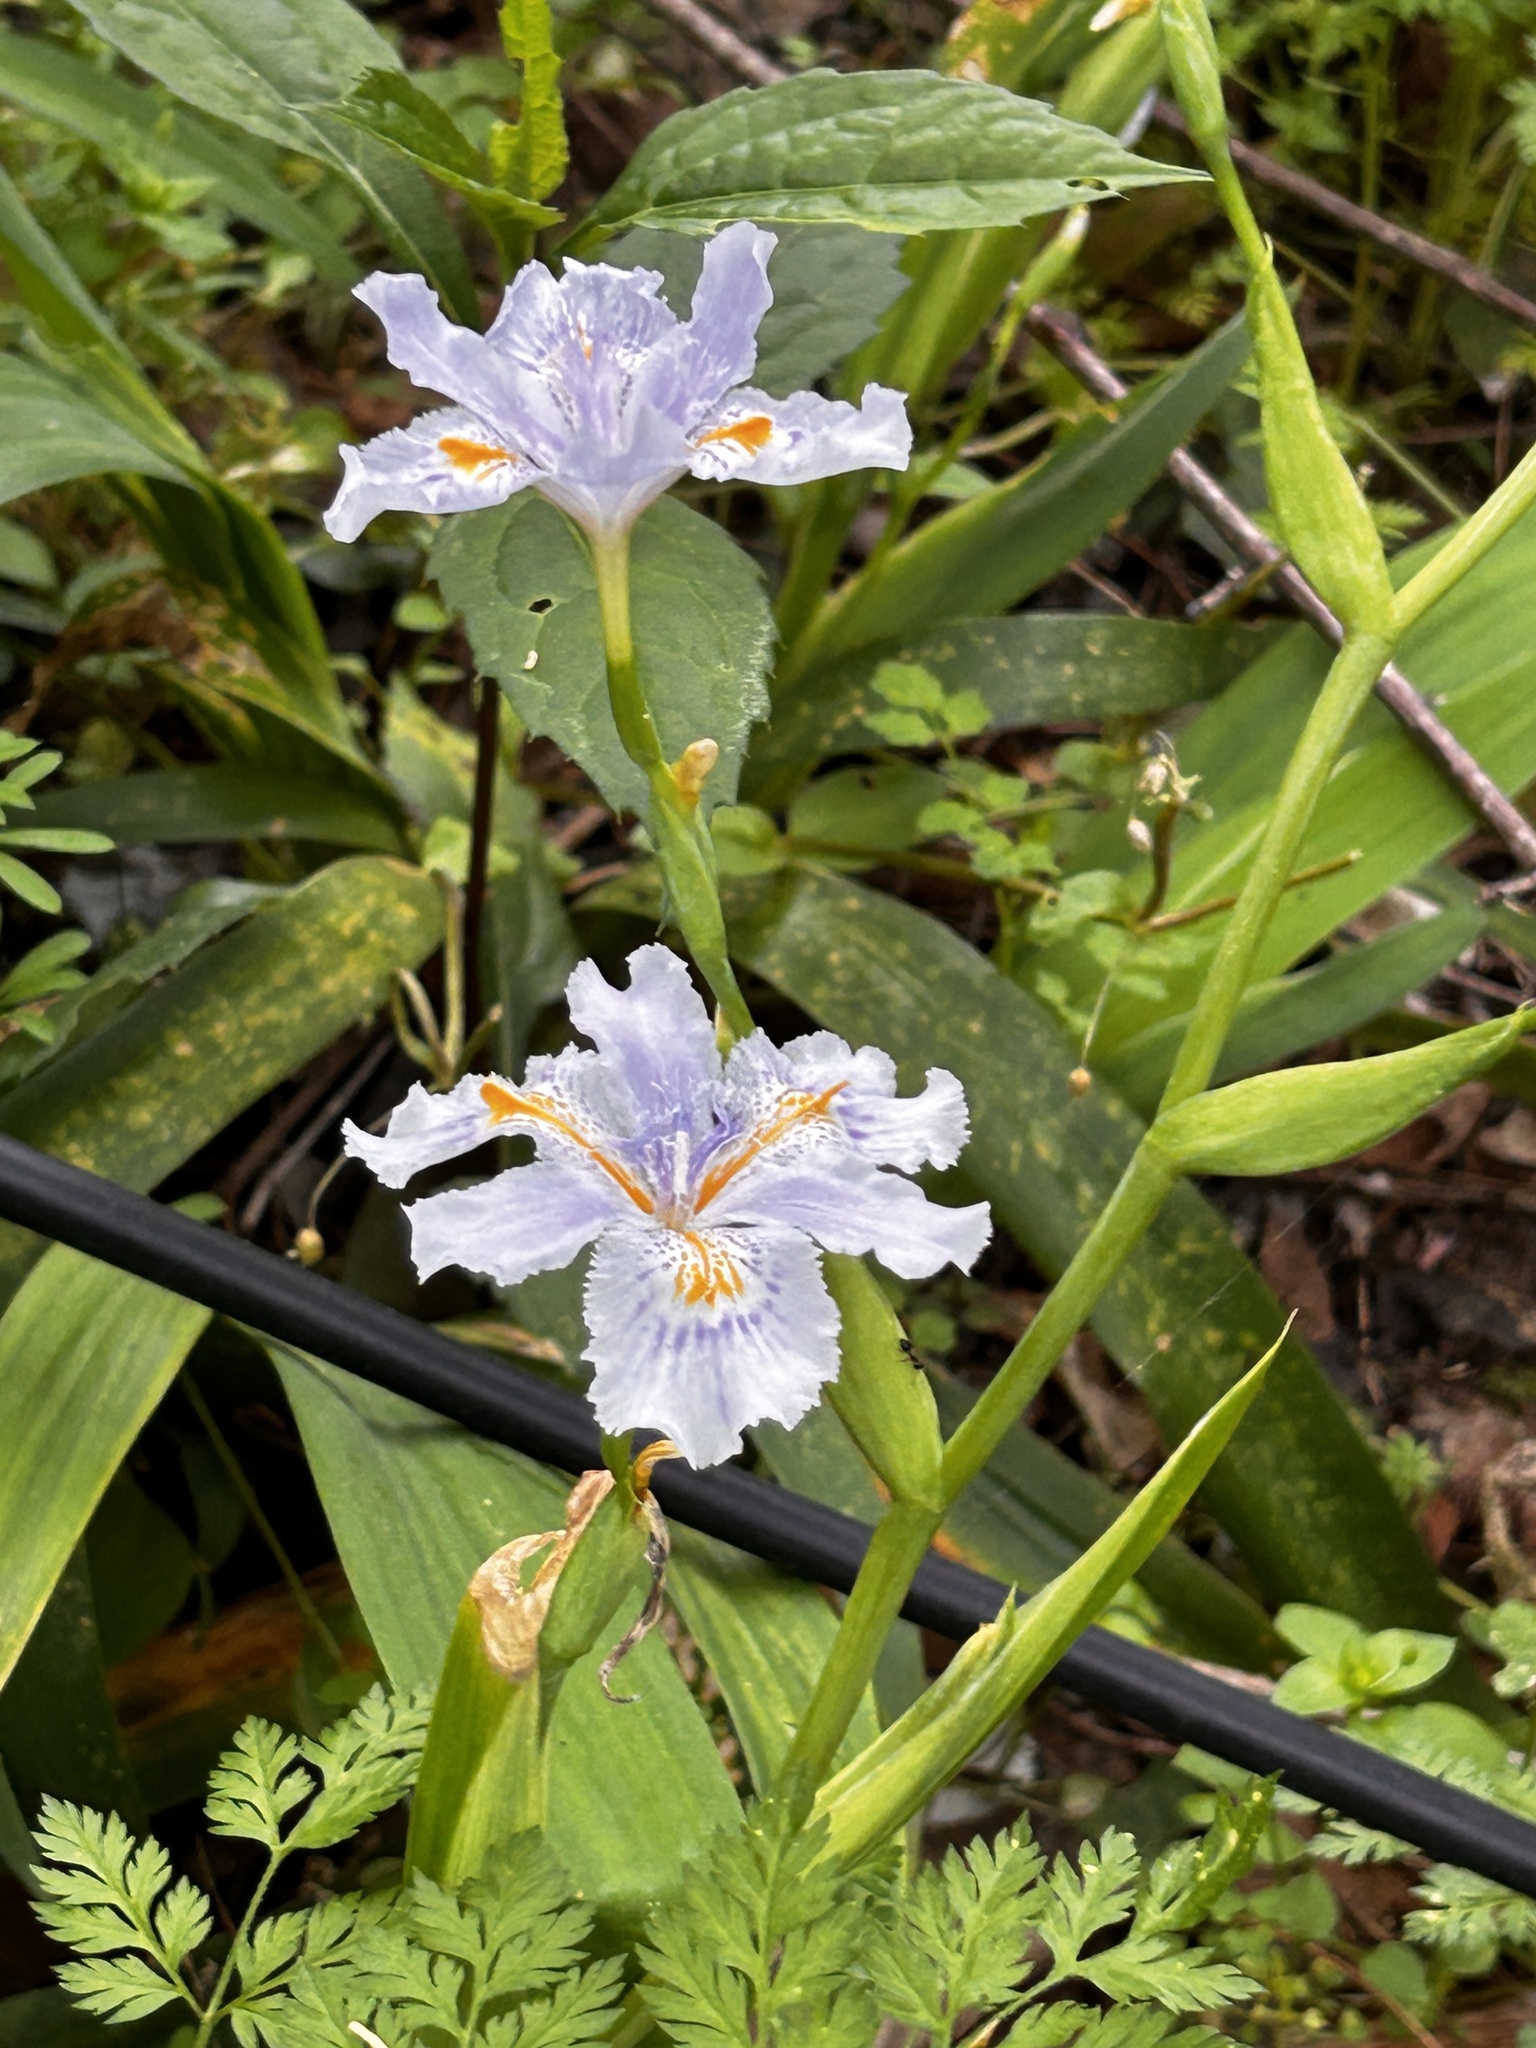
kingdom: Plantae
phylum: Tracheophyta
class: Liliopsida
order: Asparagales
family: Iridaceae
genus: Iris
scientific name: Iris japonica
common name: Butterfly-flower
